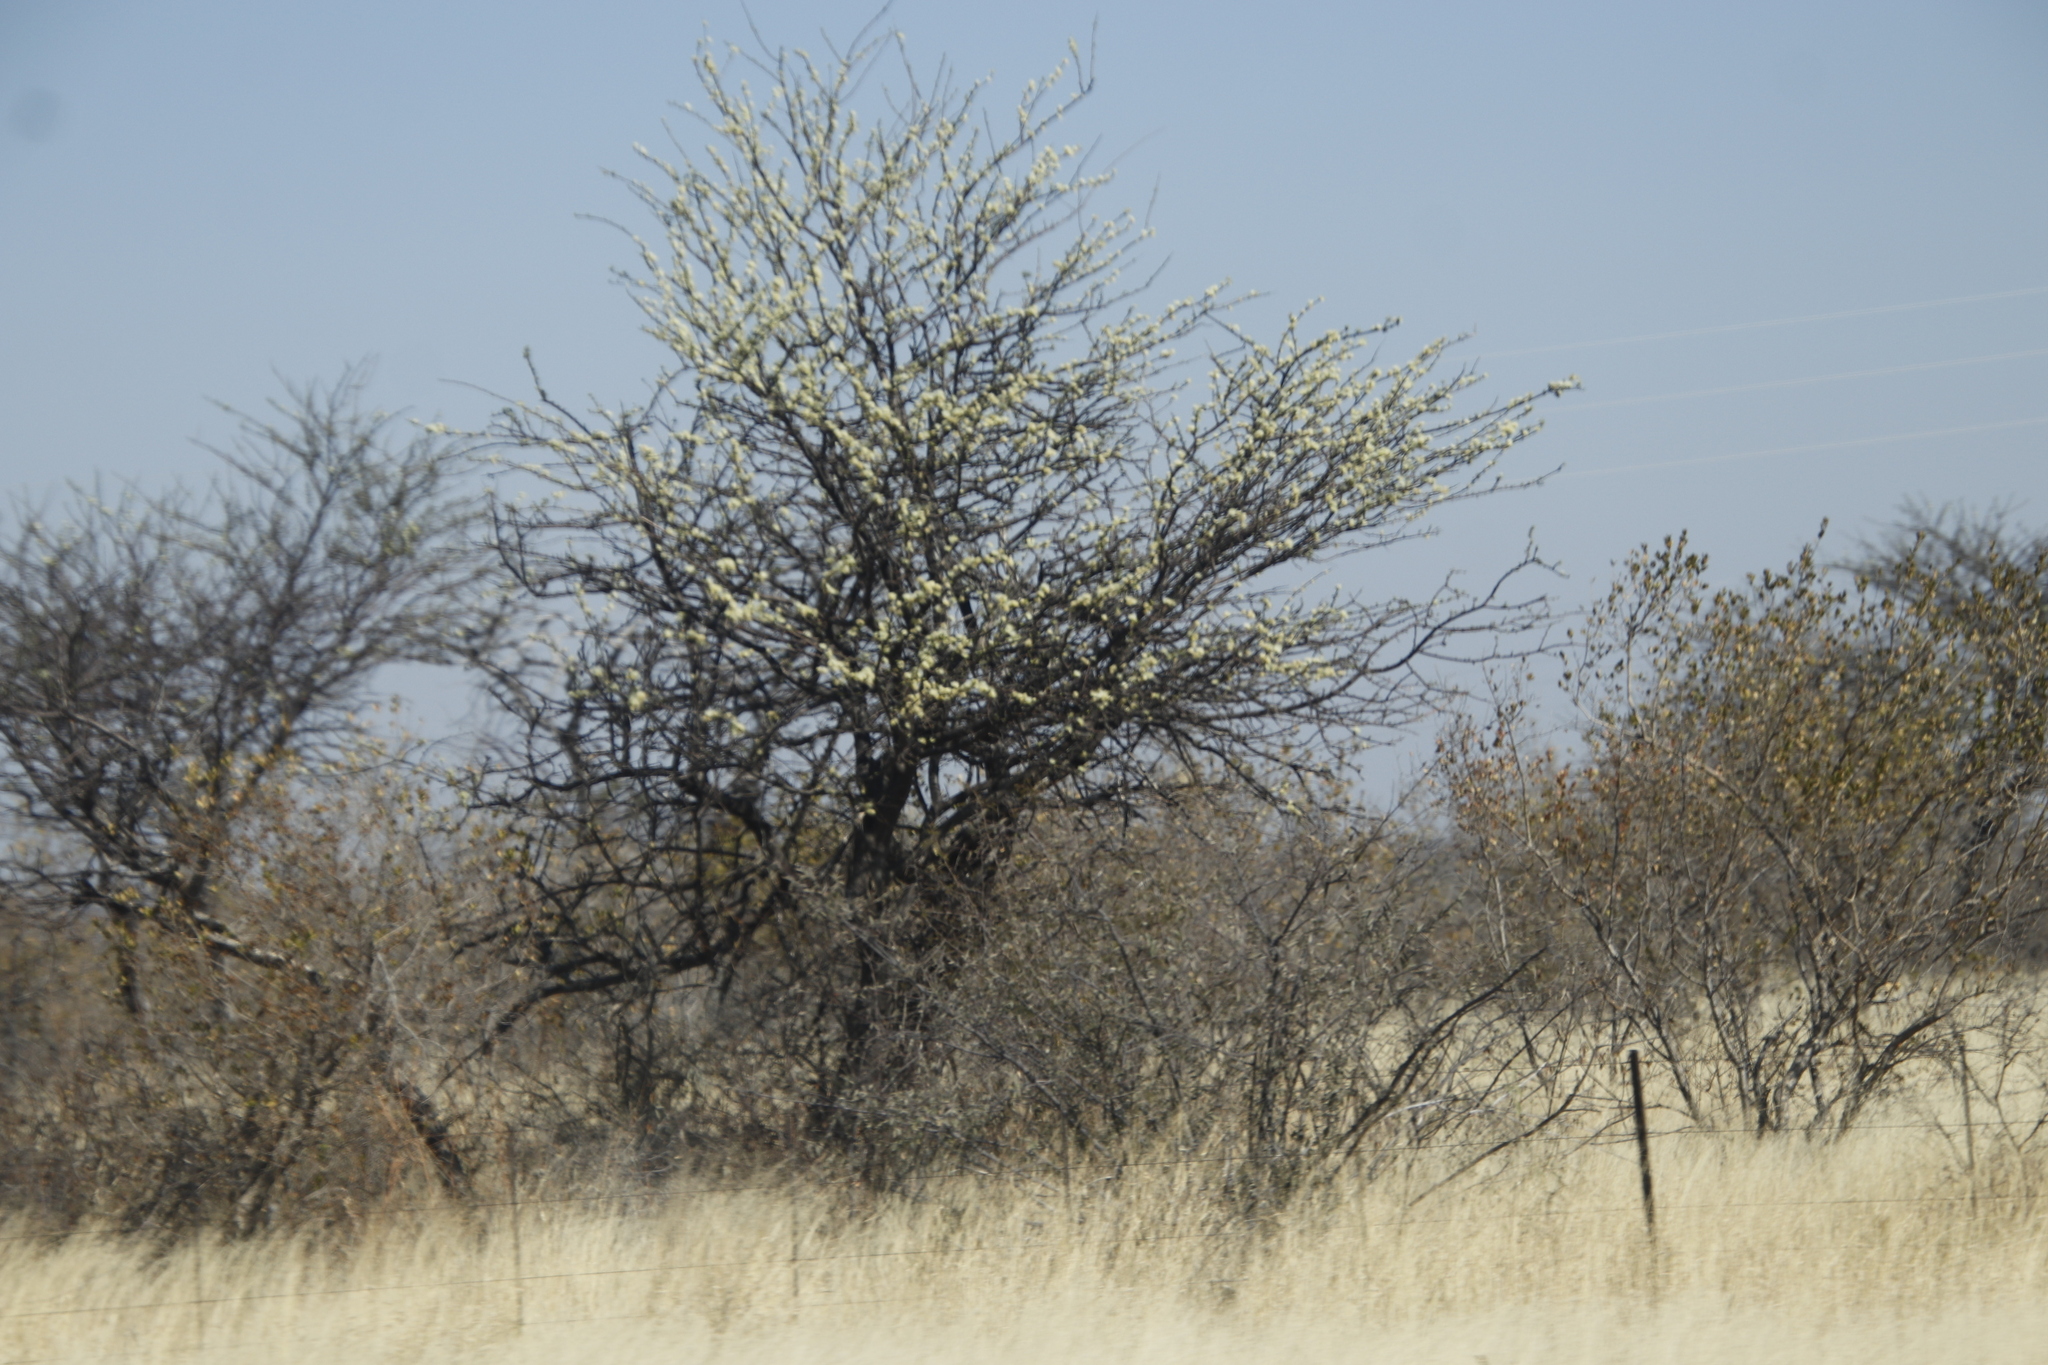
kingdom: Plantae
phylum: Tracheophyta
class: Magnoliopsida
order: Fabales
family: Fabaceae
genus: Senegalia
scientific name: Senegalia mellifera
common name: Hookthorn
